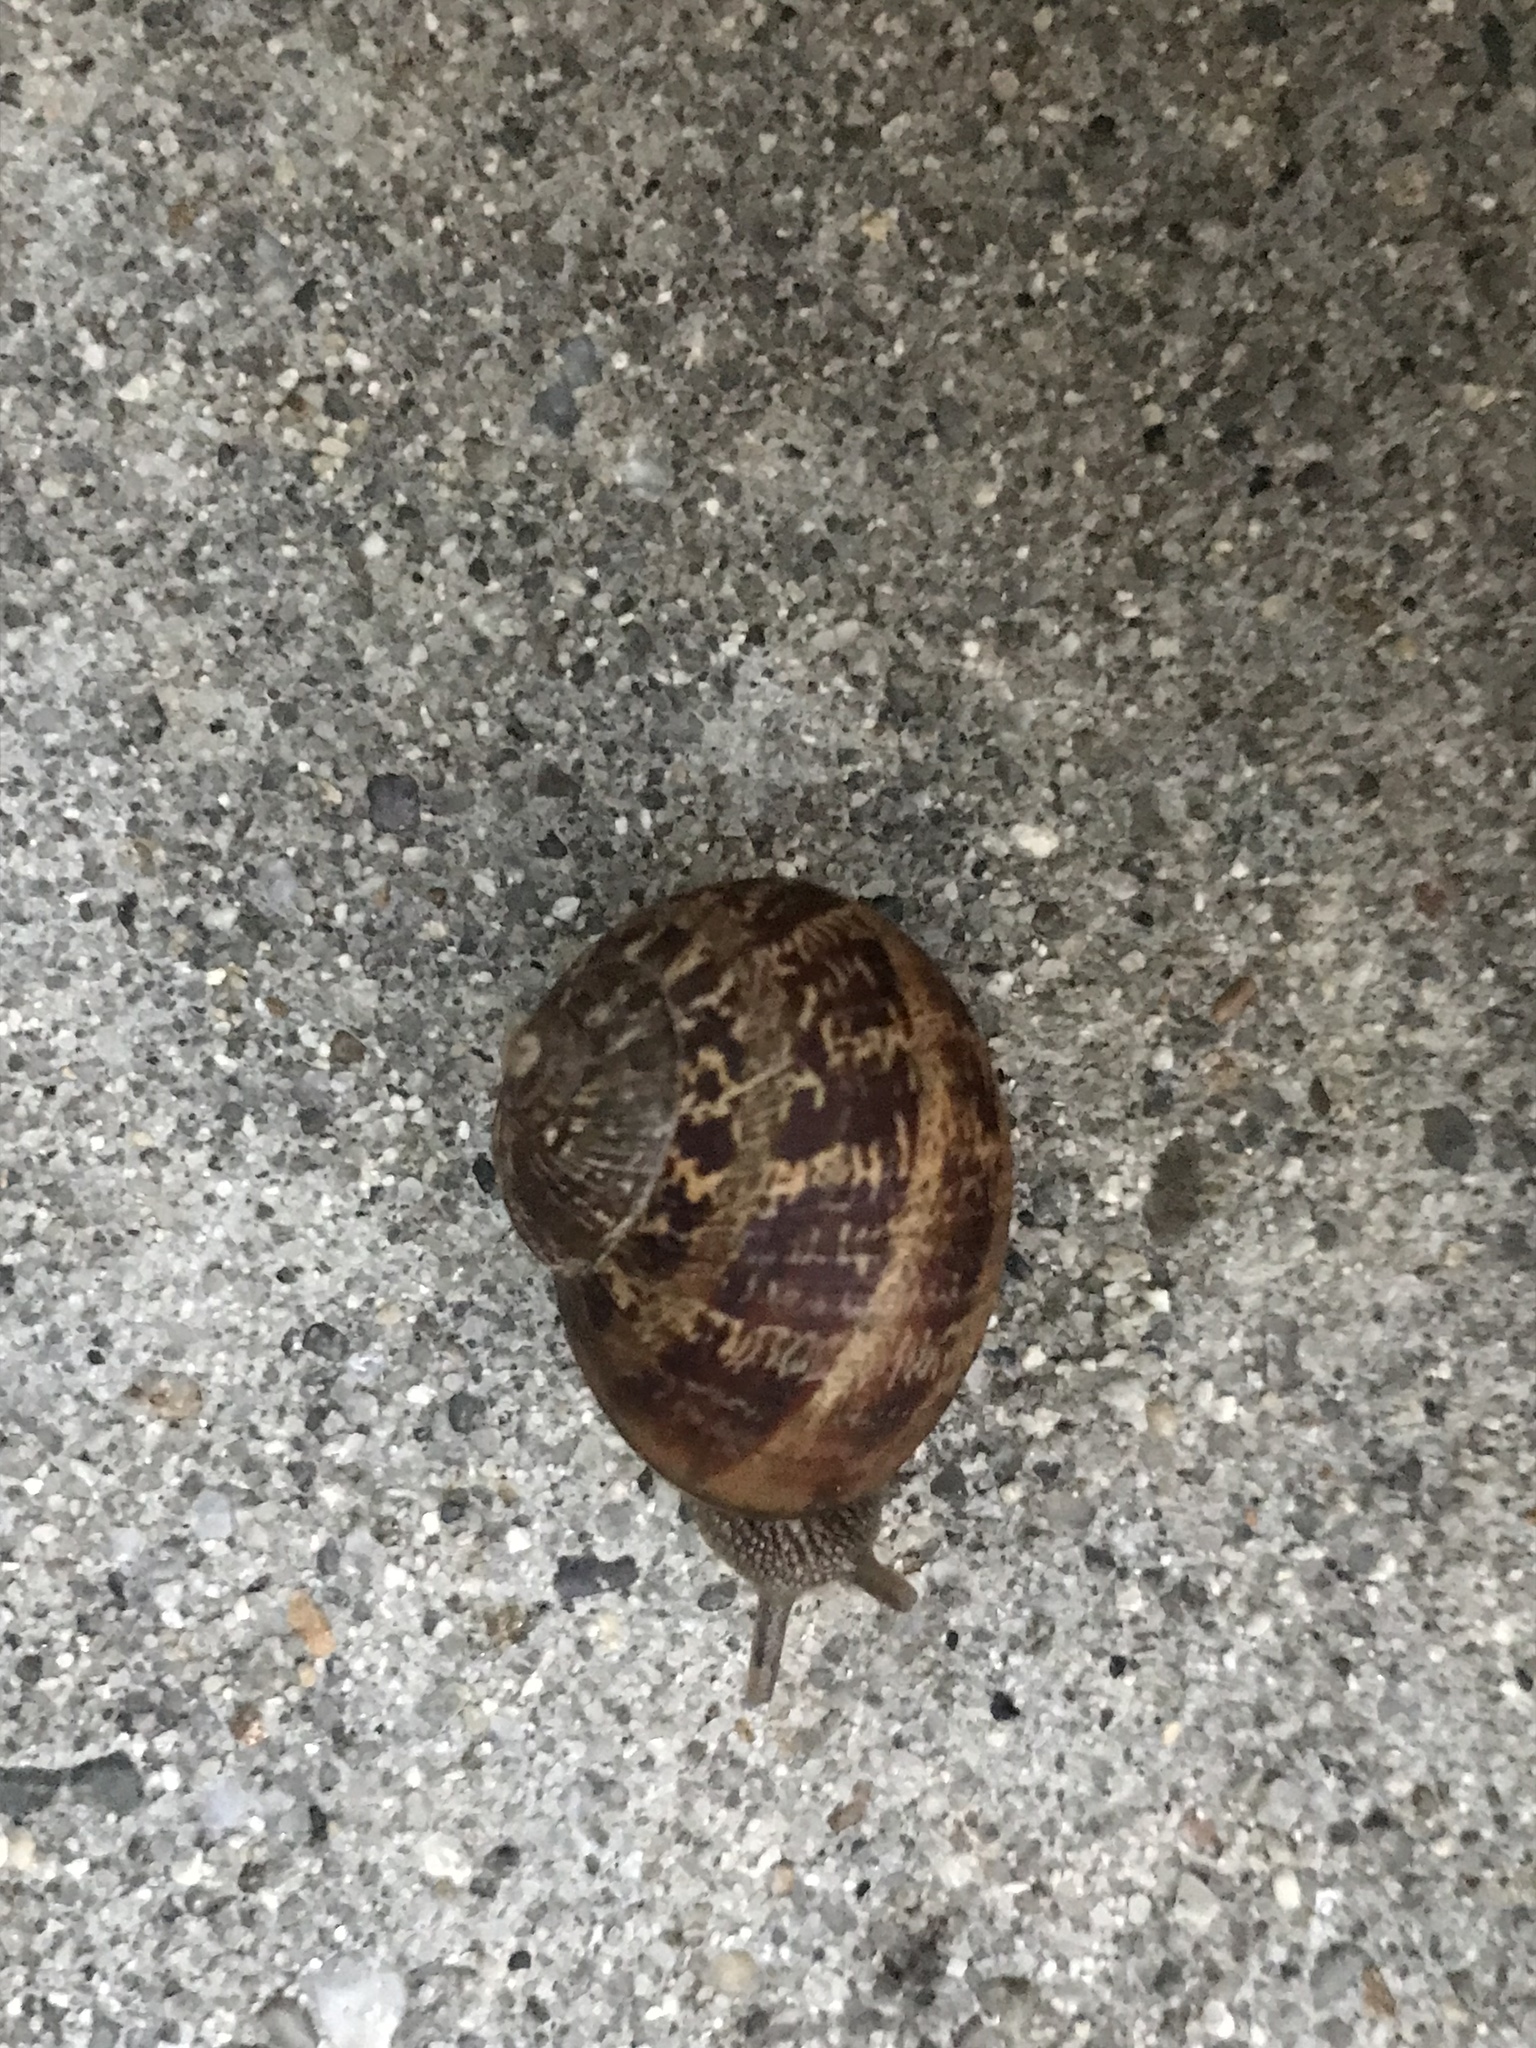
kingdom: Animalia
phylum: Mollusca
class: Gastropoda
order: Stylommatophora
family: Helicidae
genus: Cornu
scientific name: Cornu aspersum
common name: Brown garden snail
